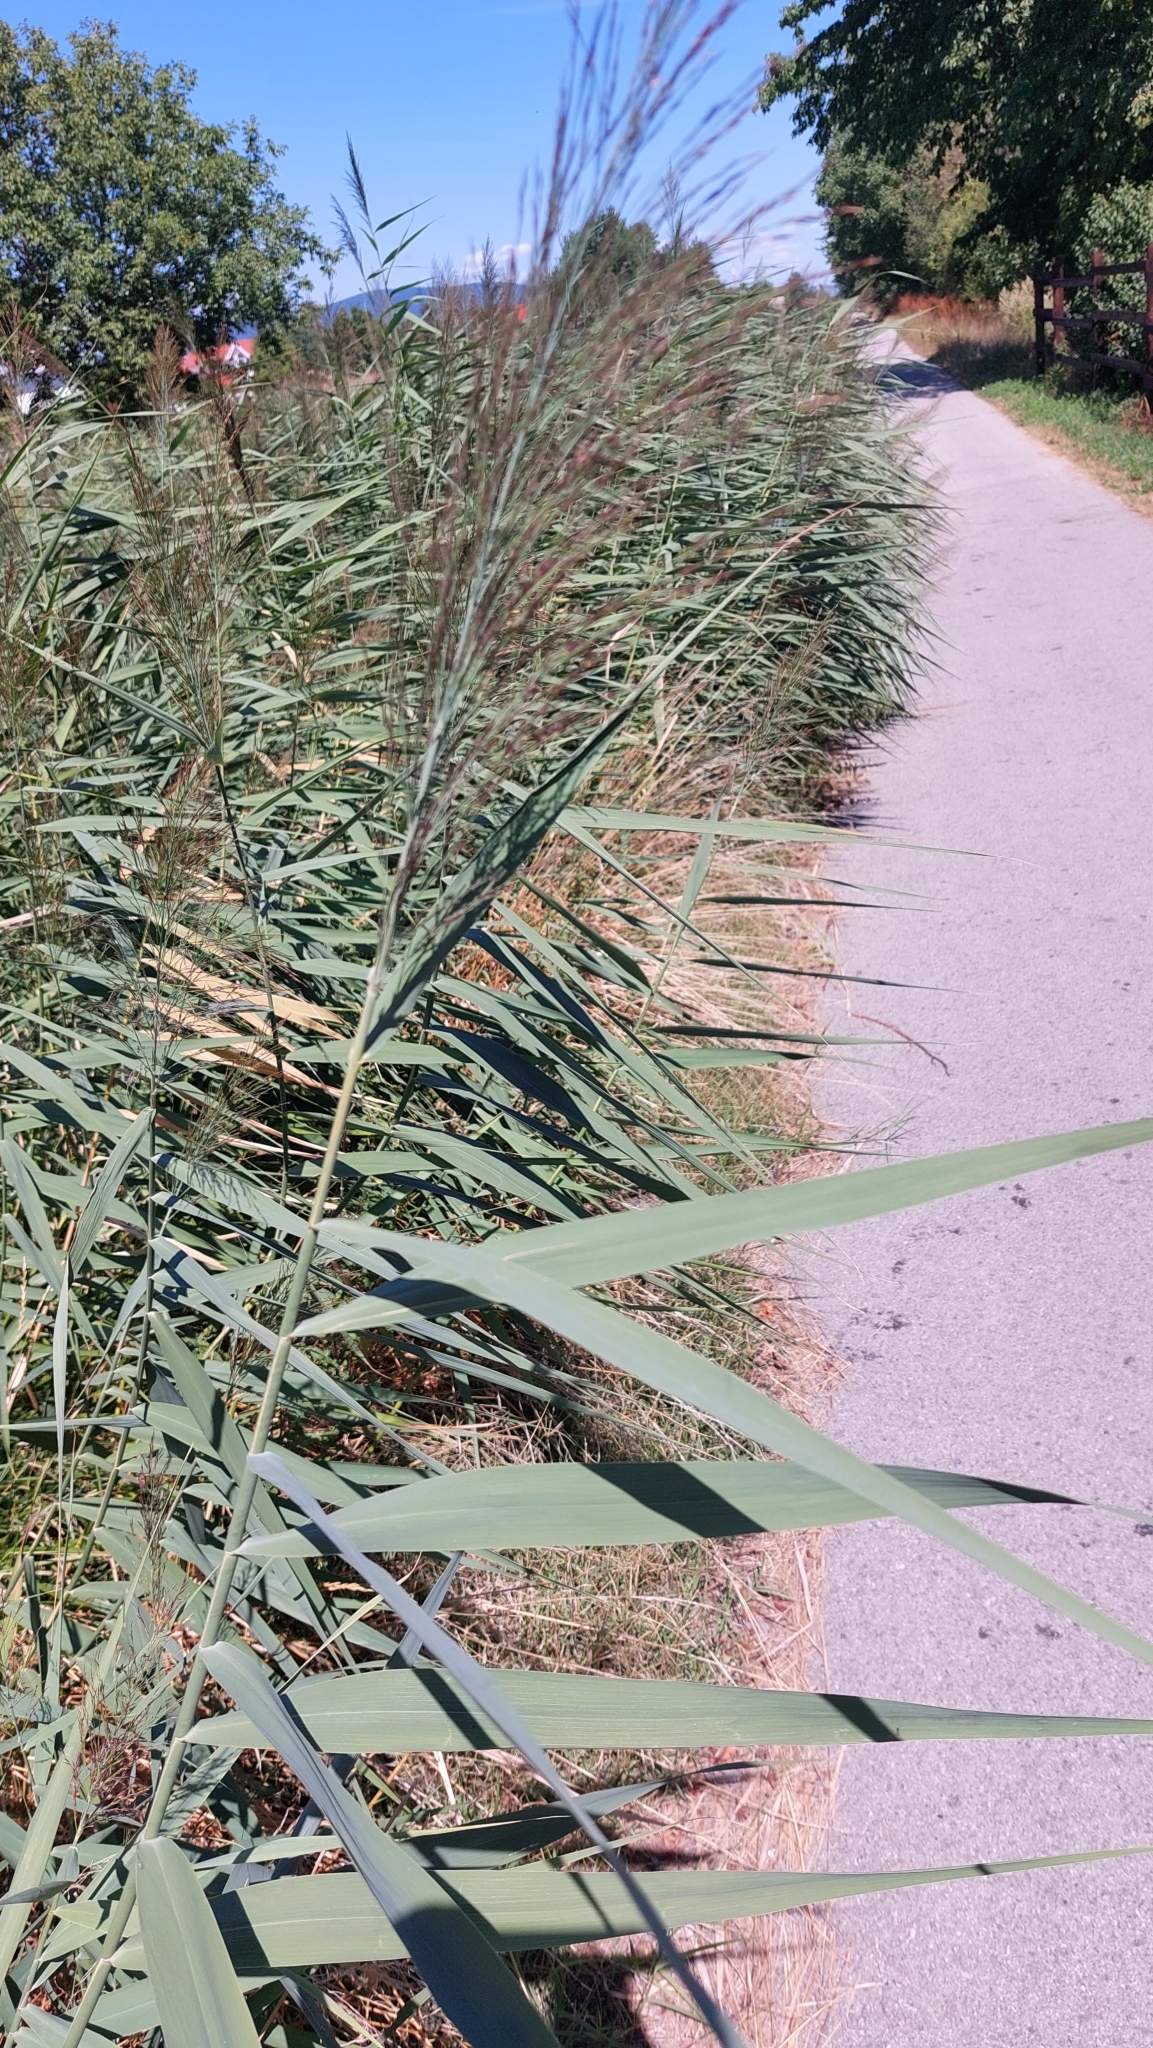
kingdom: Plantae
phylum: Tracheophyta
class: Liliopsida
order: Poales
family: Poaceae
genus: Phragmites
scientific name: Phragmites australis
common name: Common reed
